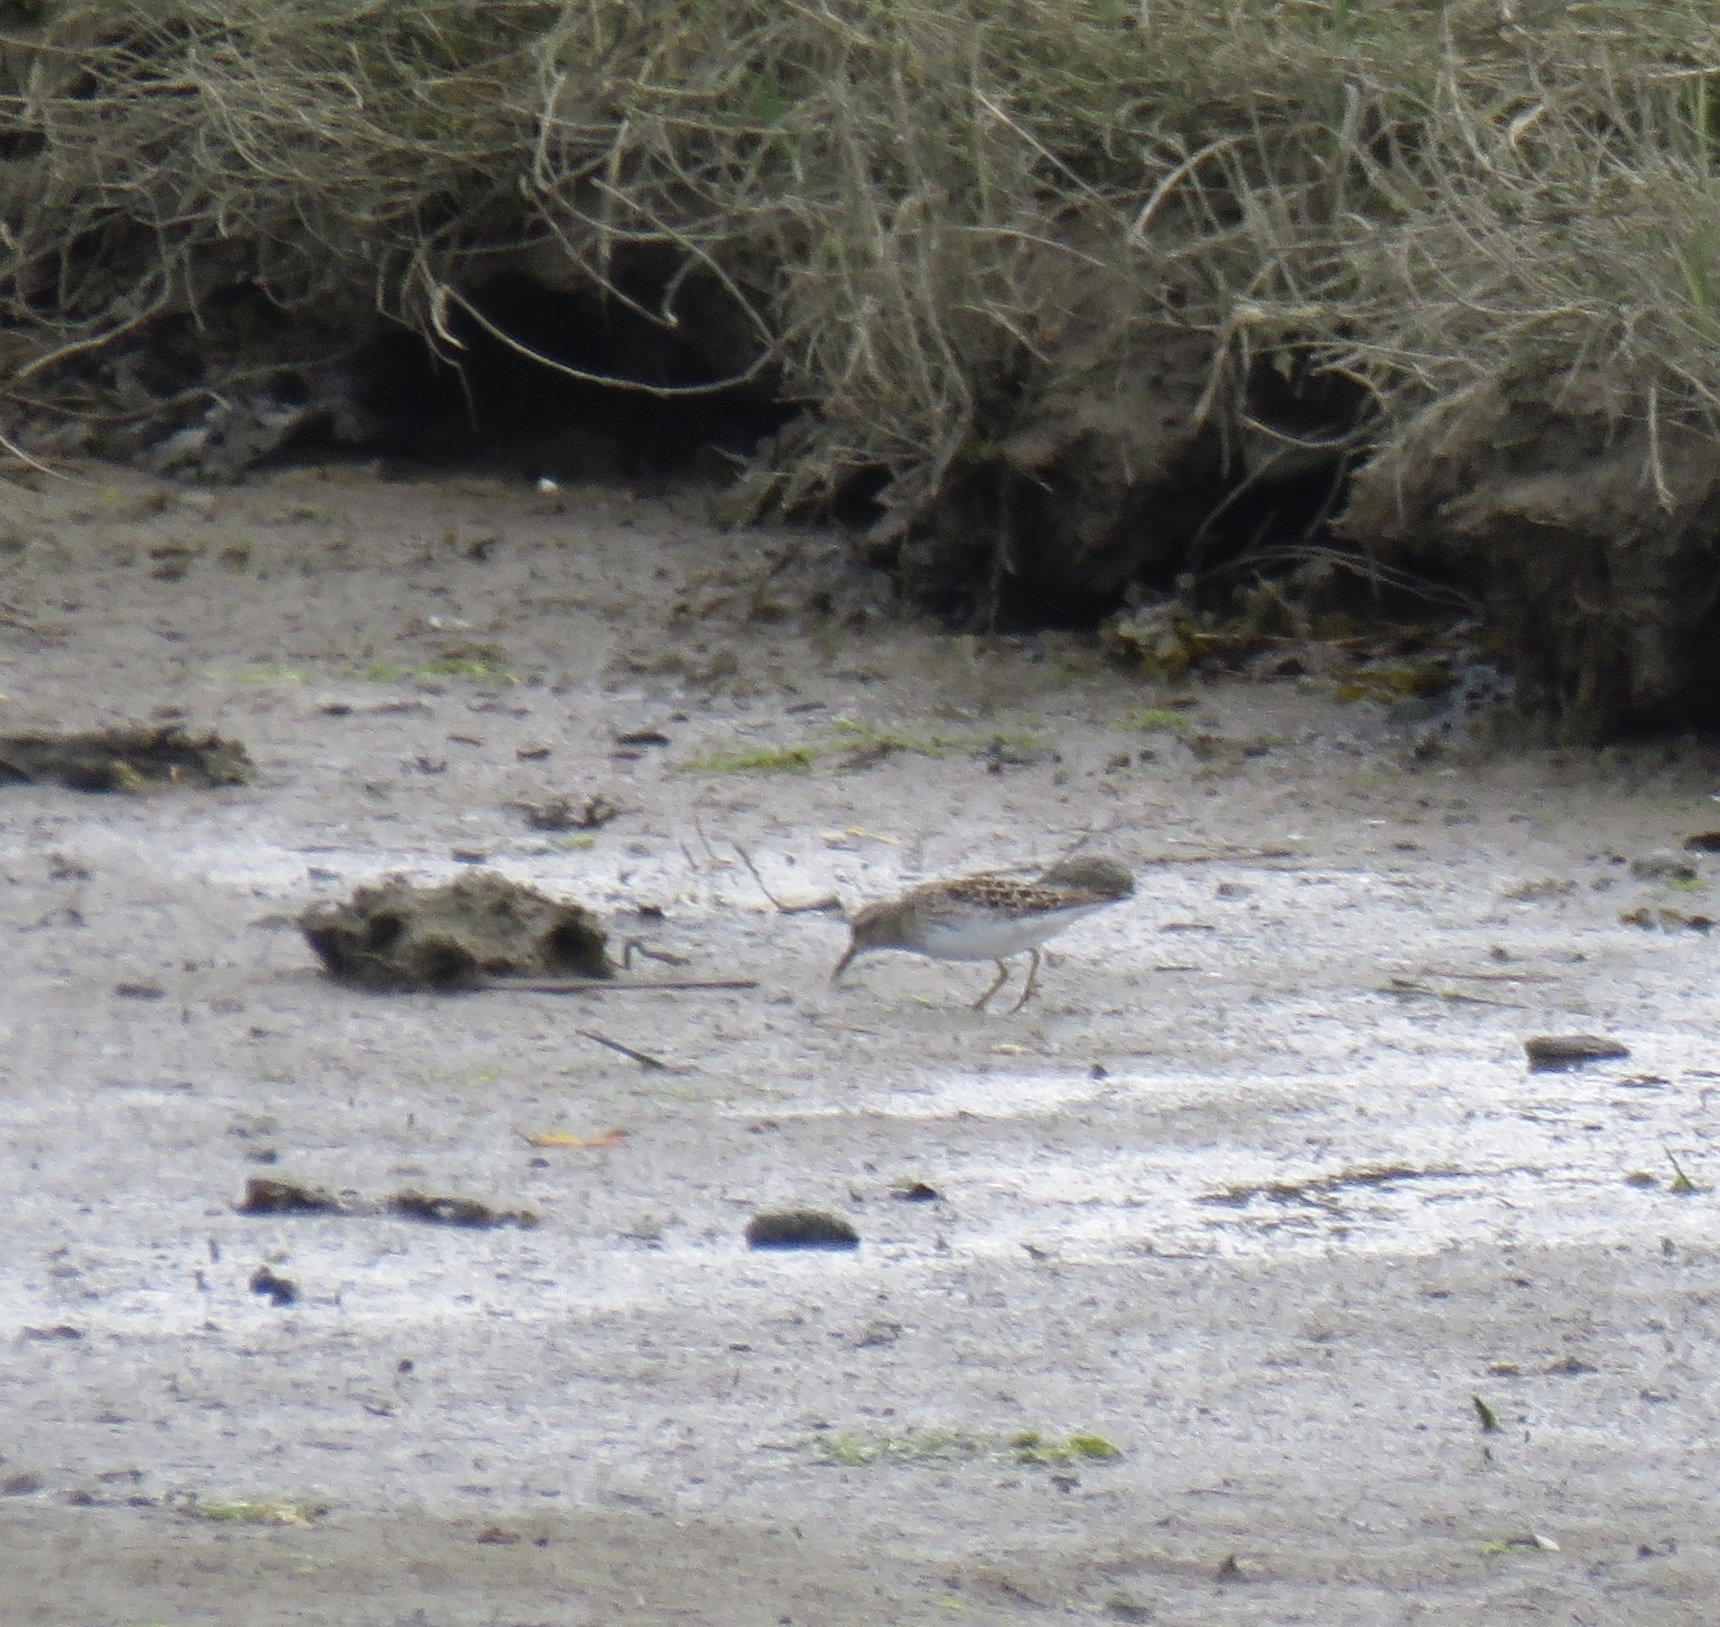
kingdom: Animalia
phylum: Chordata
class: Aves
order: Charadriiformes
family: Scolopacidae
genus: Calidris
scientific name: Calidris minutilla
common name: Least sandpiper
